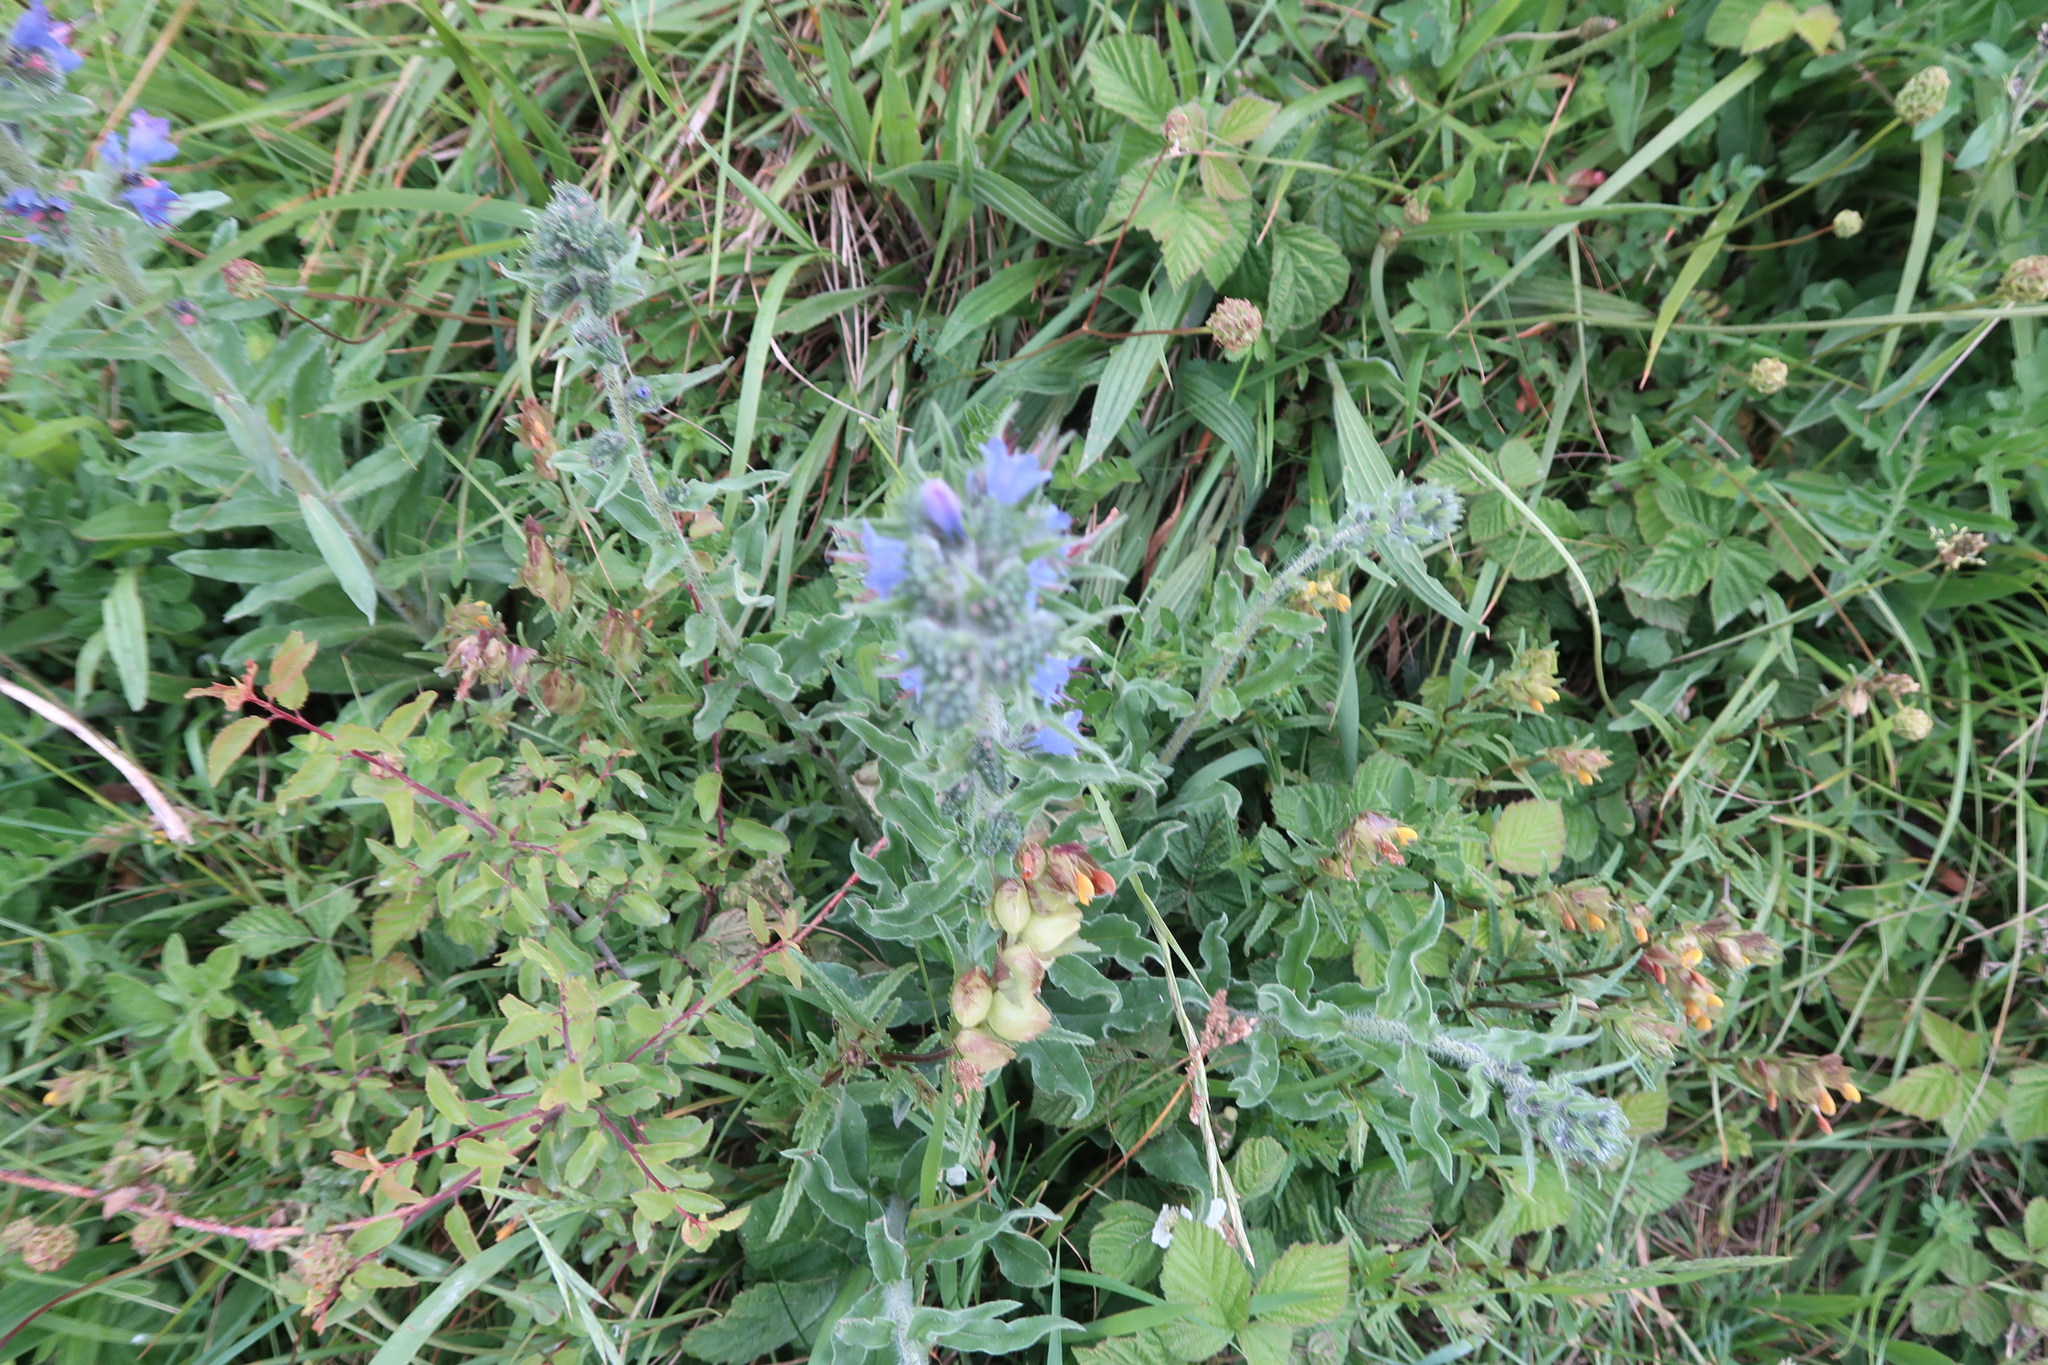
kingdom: Plantae
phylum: Tracheophyta
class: Magnoliopsida
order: Boraginales
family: Boraginaceae
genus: Echium
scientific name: Echium vulgare
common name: Common viper's bugloss
